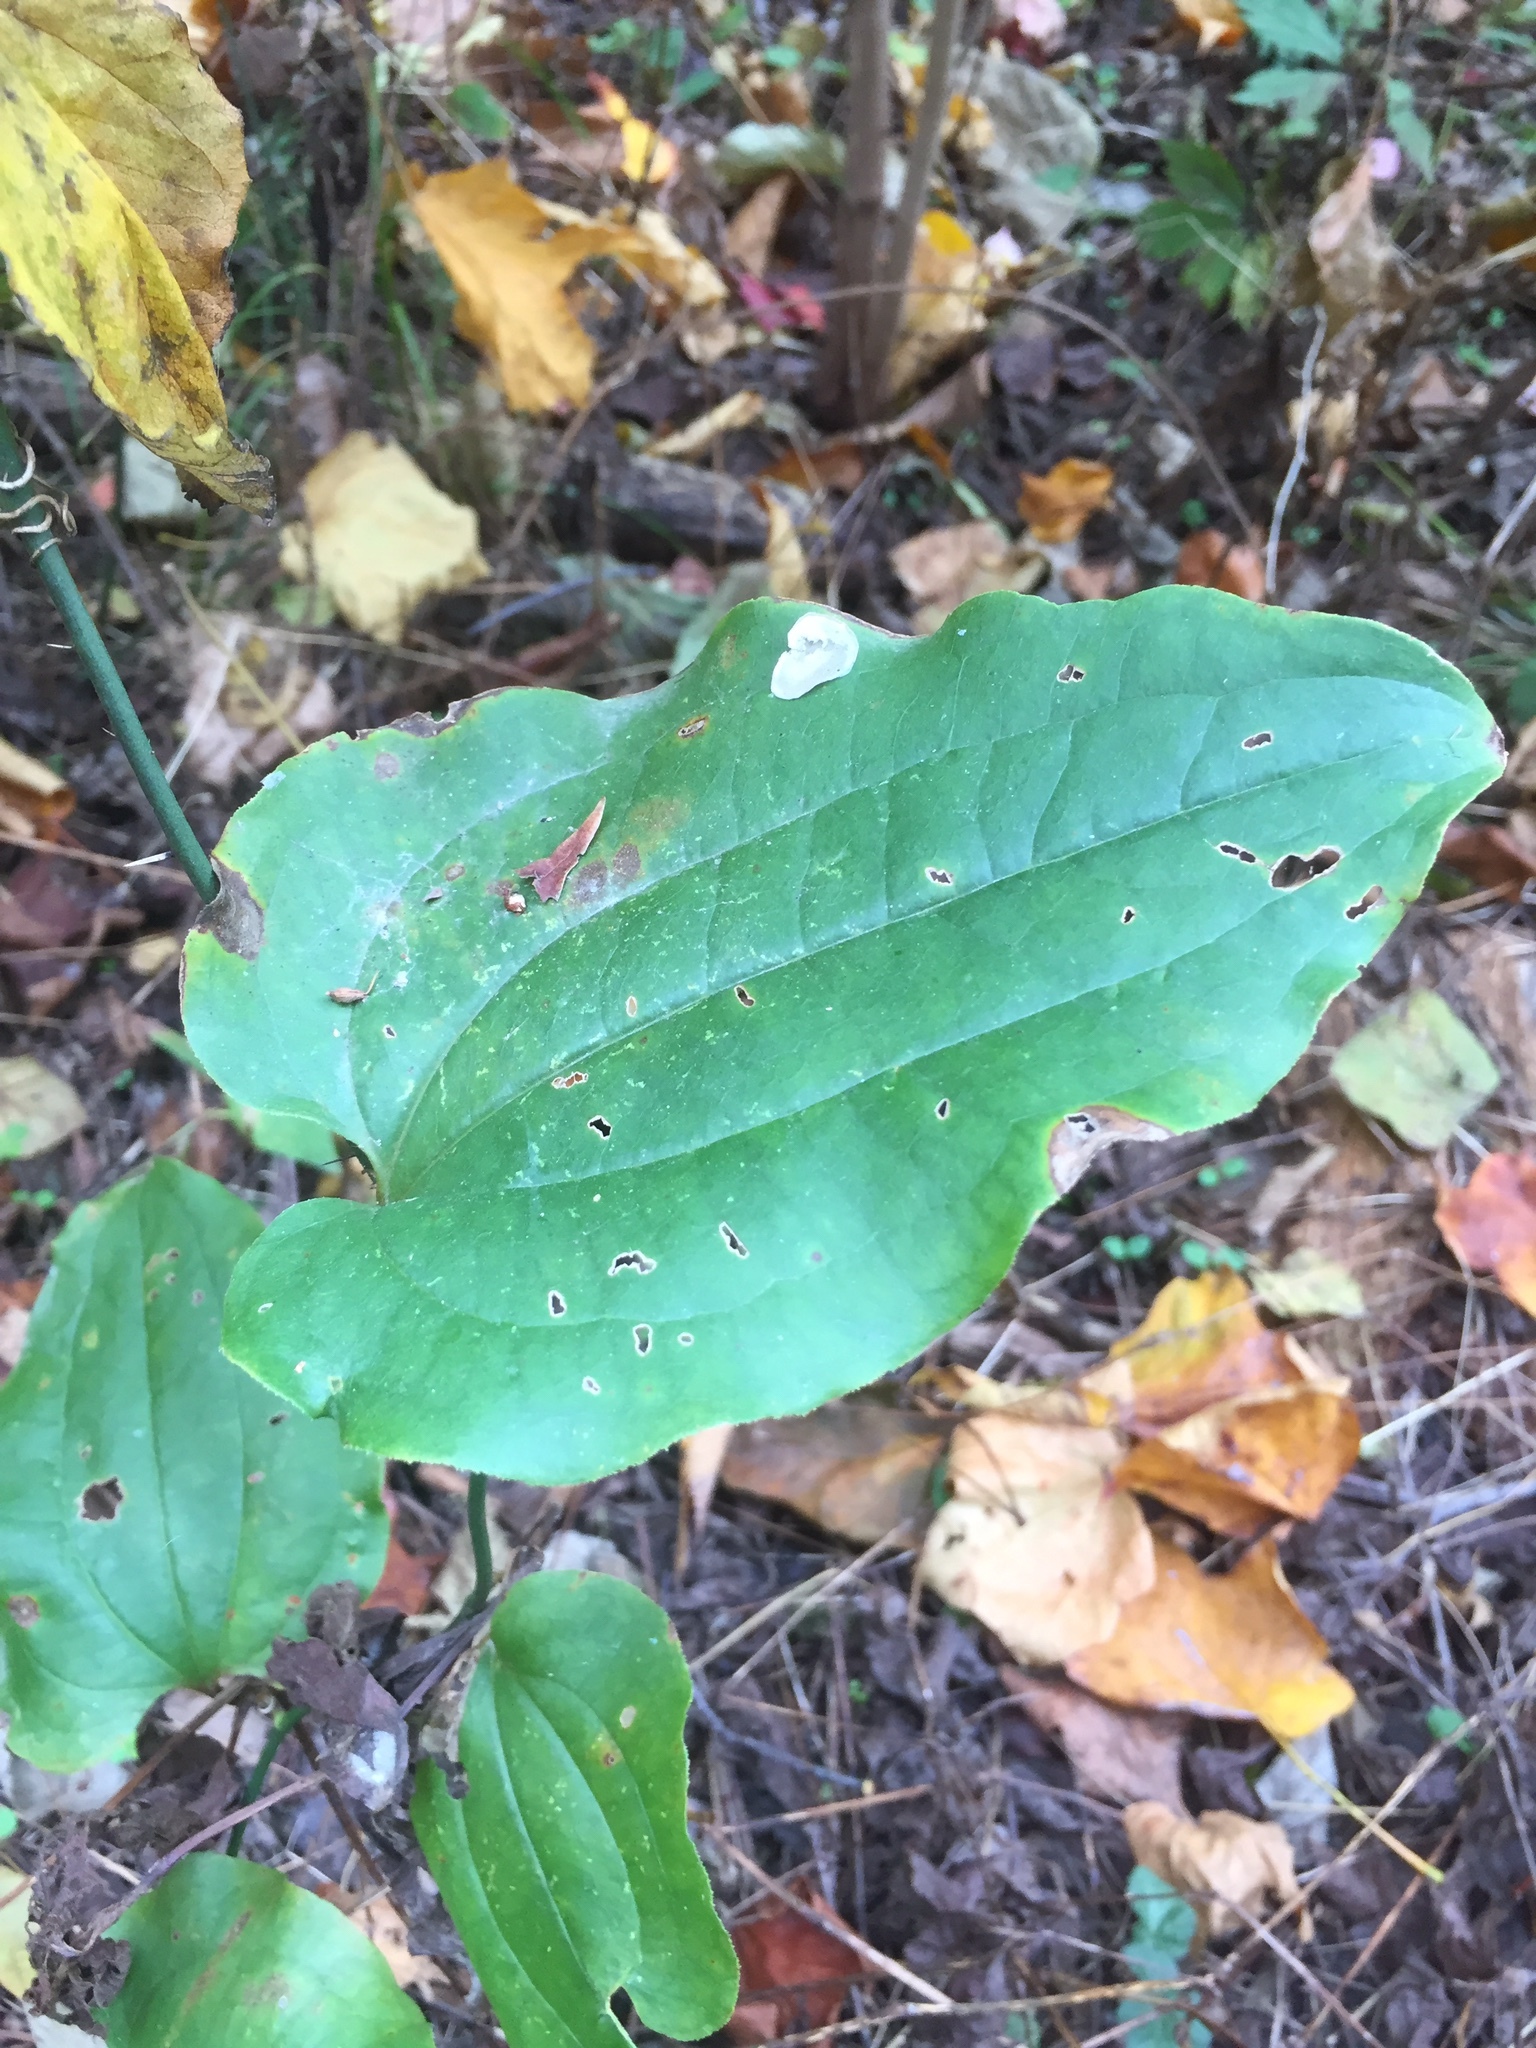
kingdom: Plantae
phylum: Tracheophyta
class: Liliopsida
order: Liliales
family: Smilacaceae
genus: Smilax
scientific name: Smilax tamnoides
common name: Hellfetter
